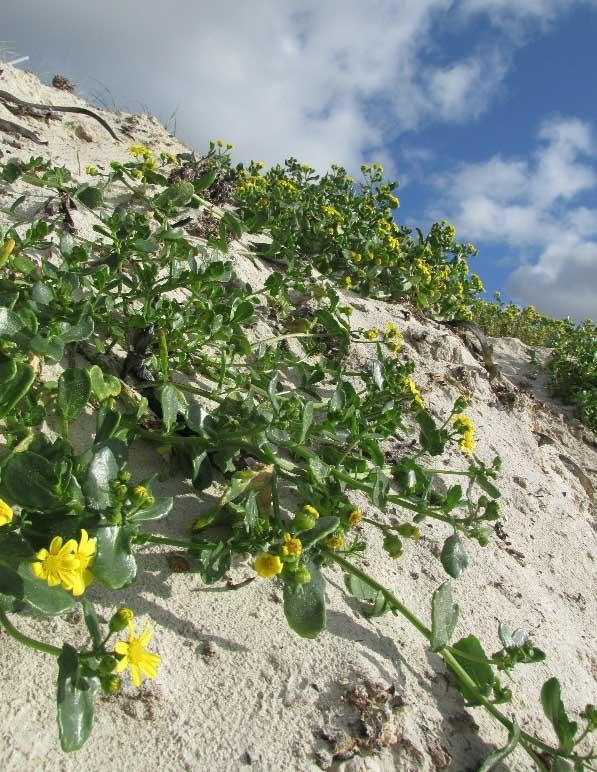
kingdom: Plantae
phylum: Tracheophyta
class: Magnoliopsida
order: Asterales
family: Asteraceae
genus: Senecio
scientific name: Senecio maritimus
